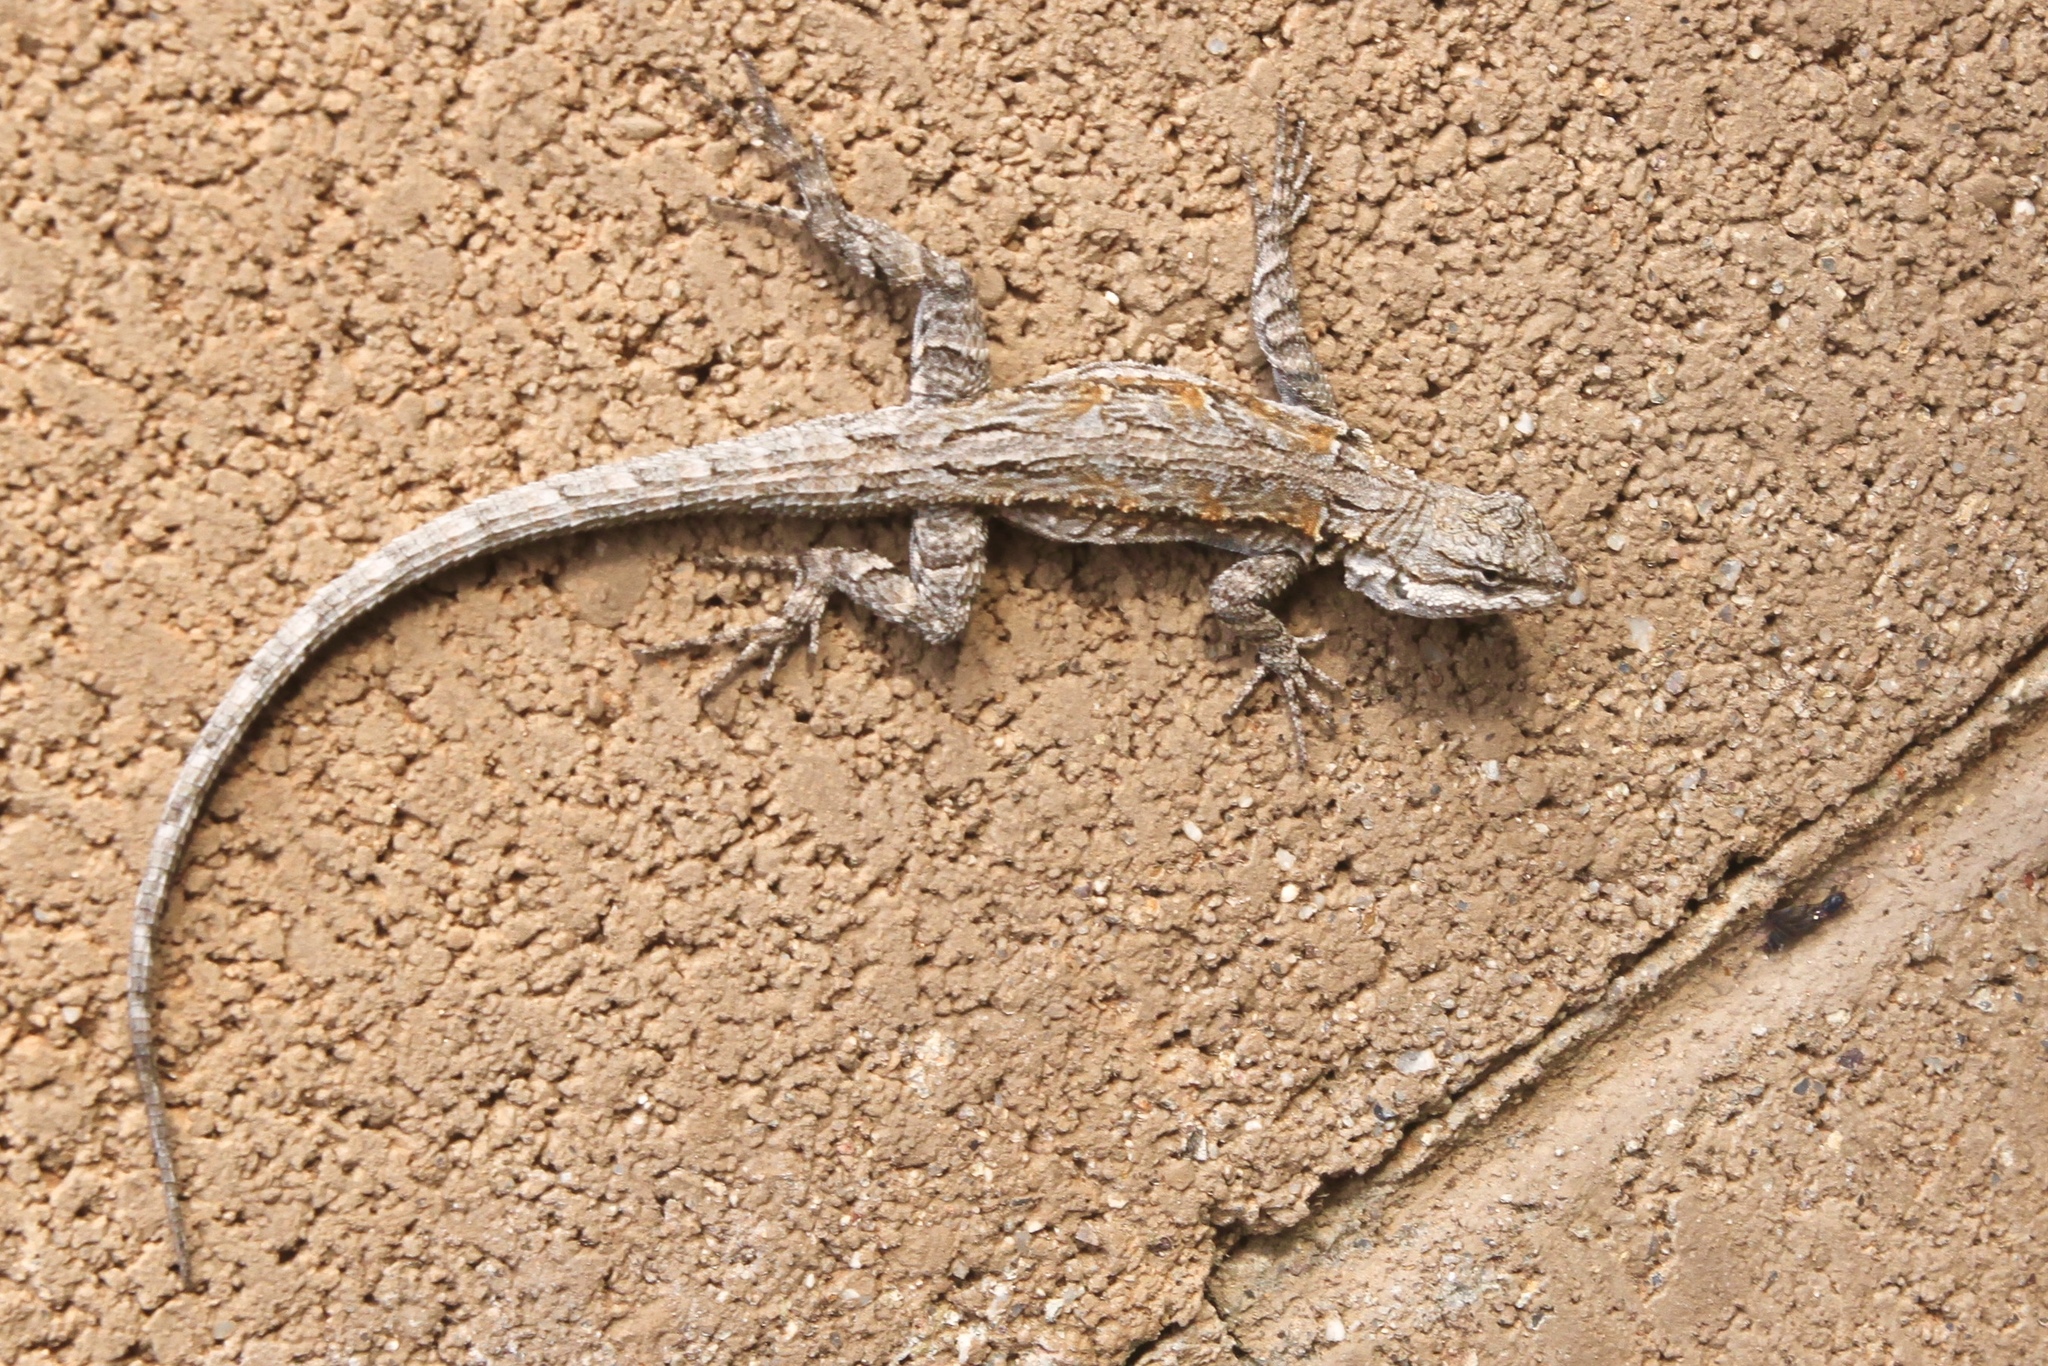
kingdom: Animalia
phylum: Chordata
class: Squamata
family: Phrynosomatidae
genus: Urosaurus
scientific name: Urosaurus ornatus
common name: Ornate tree lizard
